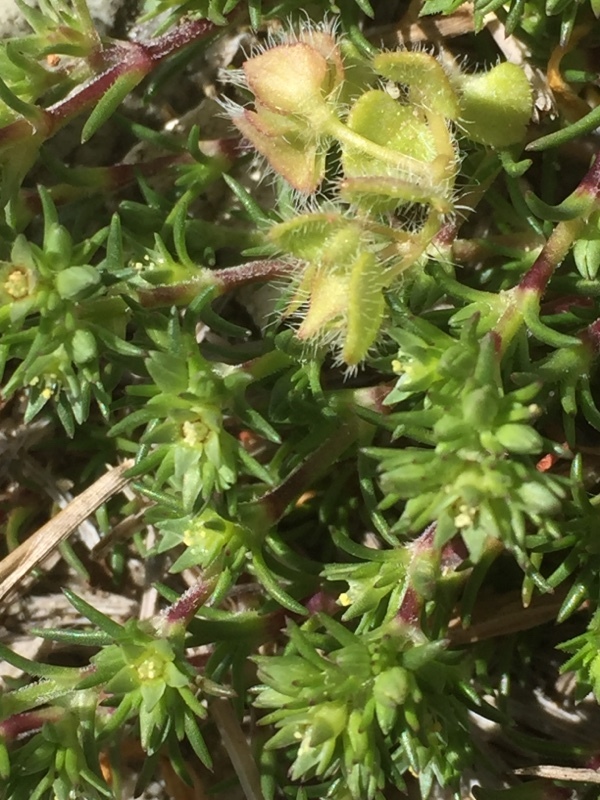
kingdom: Plantae
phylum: Tracheophyta
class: Magnoliopsida
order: Caryophyllales
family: Caryophyllaceae
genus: Scleranthus
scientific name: Scleranthus annuus
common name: Annual knawel
